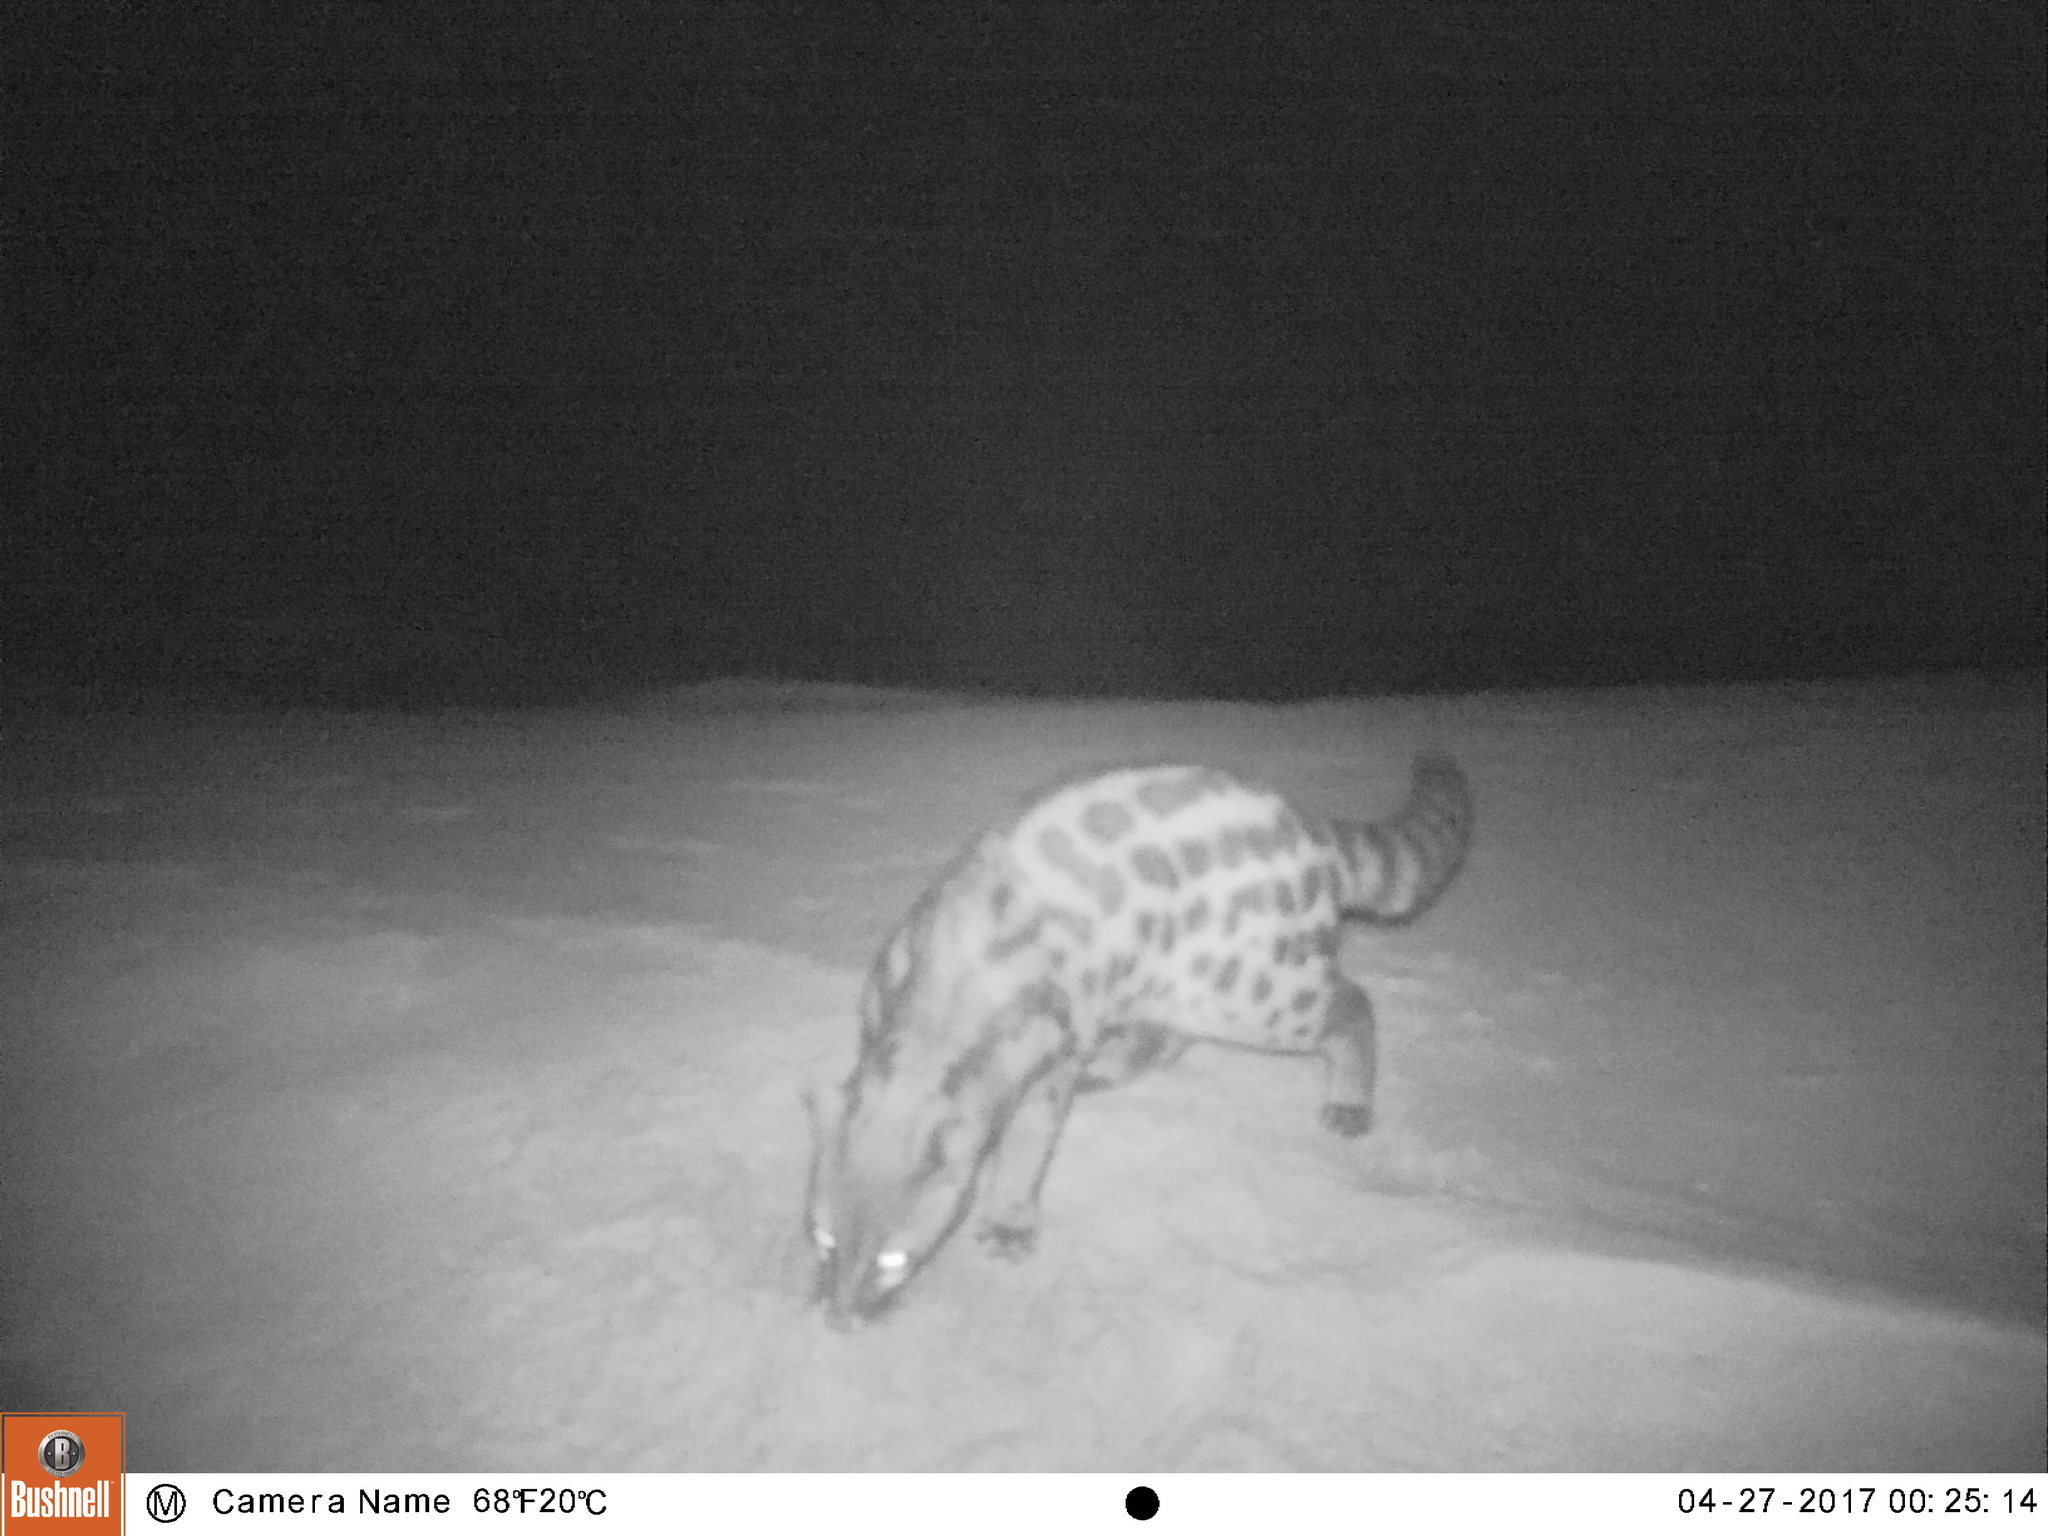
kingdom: Animalia
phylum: Chordata
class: Mammalia
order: Carnivora
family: Viverridae
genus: Genetta
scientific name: Genetta tigrina
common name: Cape genet
